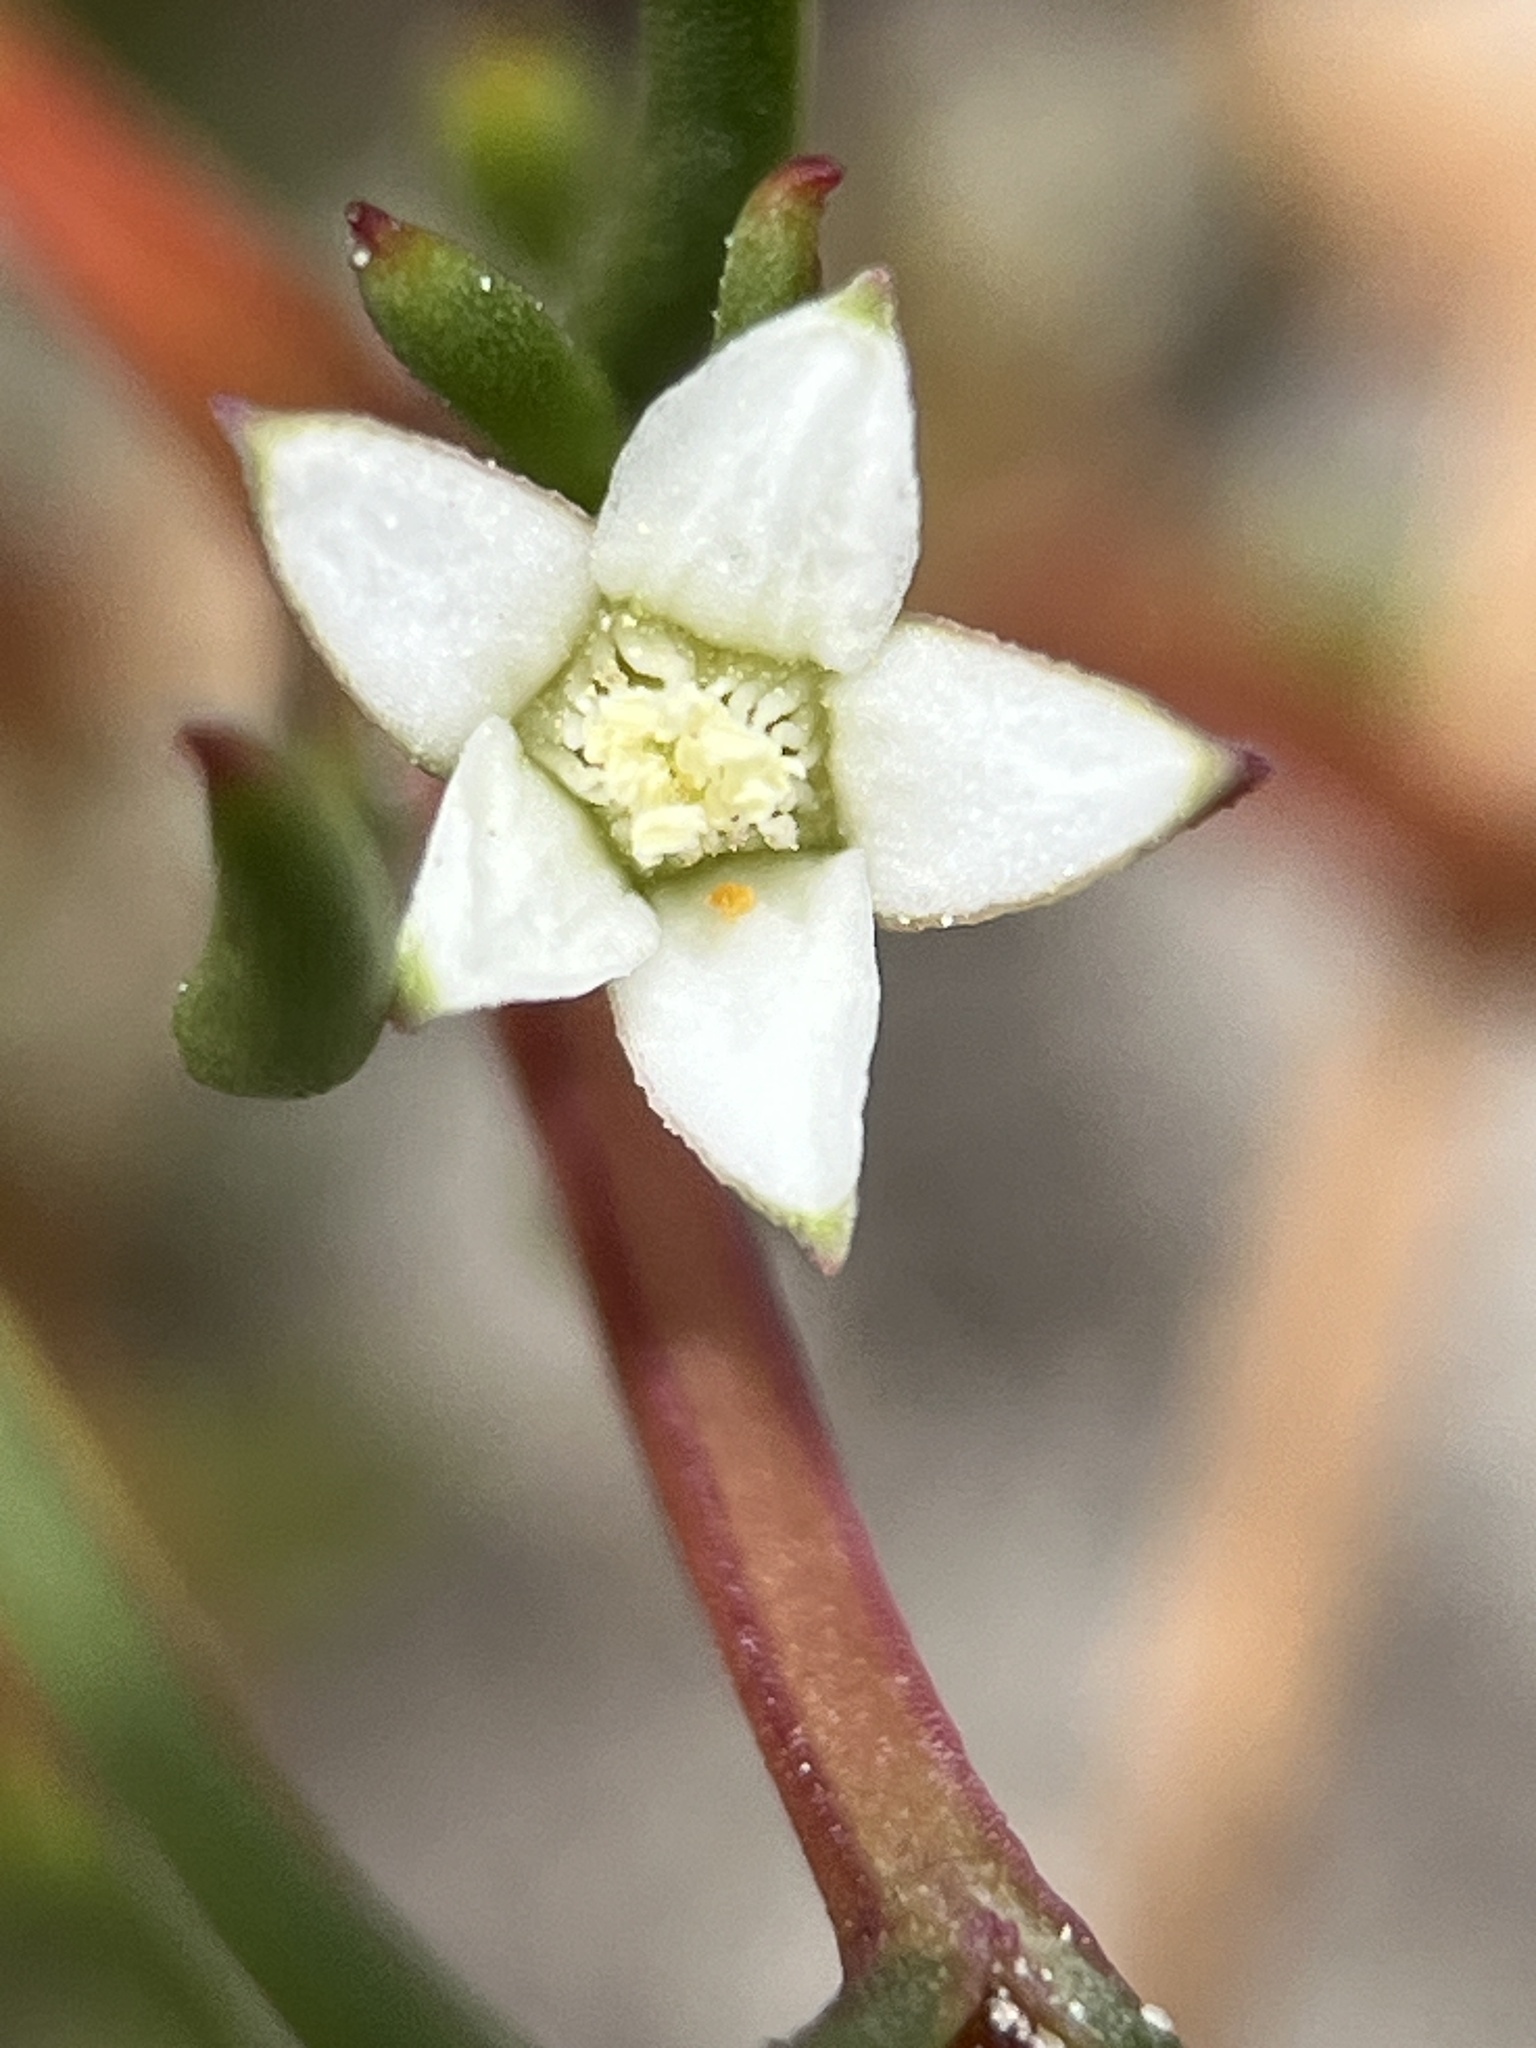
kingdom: Plantae
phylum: Tracheophyta
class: Magnoliopsida
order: Caryophyllales
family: Aizoaceae
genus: Acrosanthes
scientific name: Acrosanthes teretifolia
